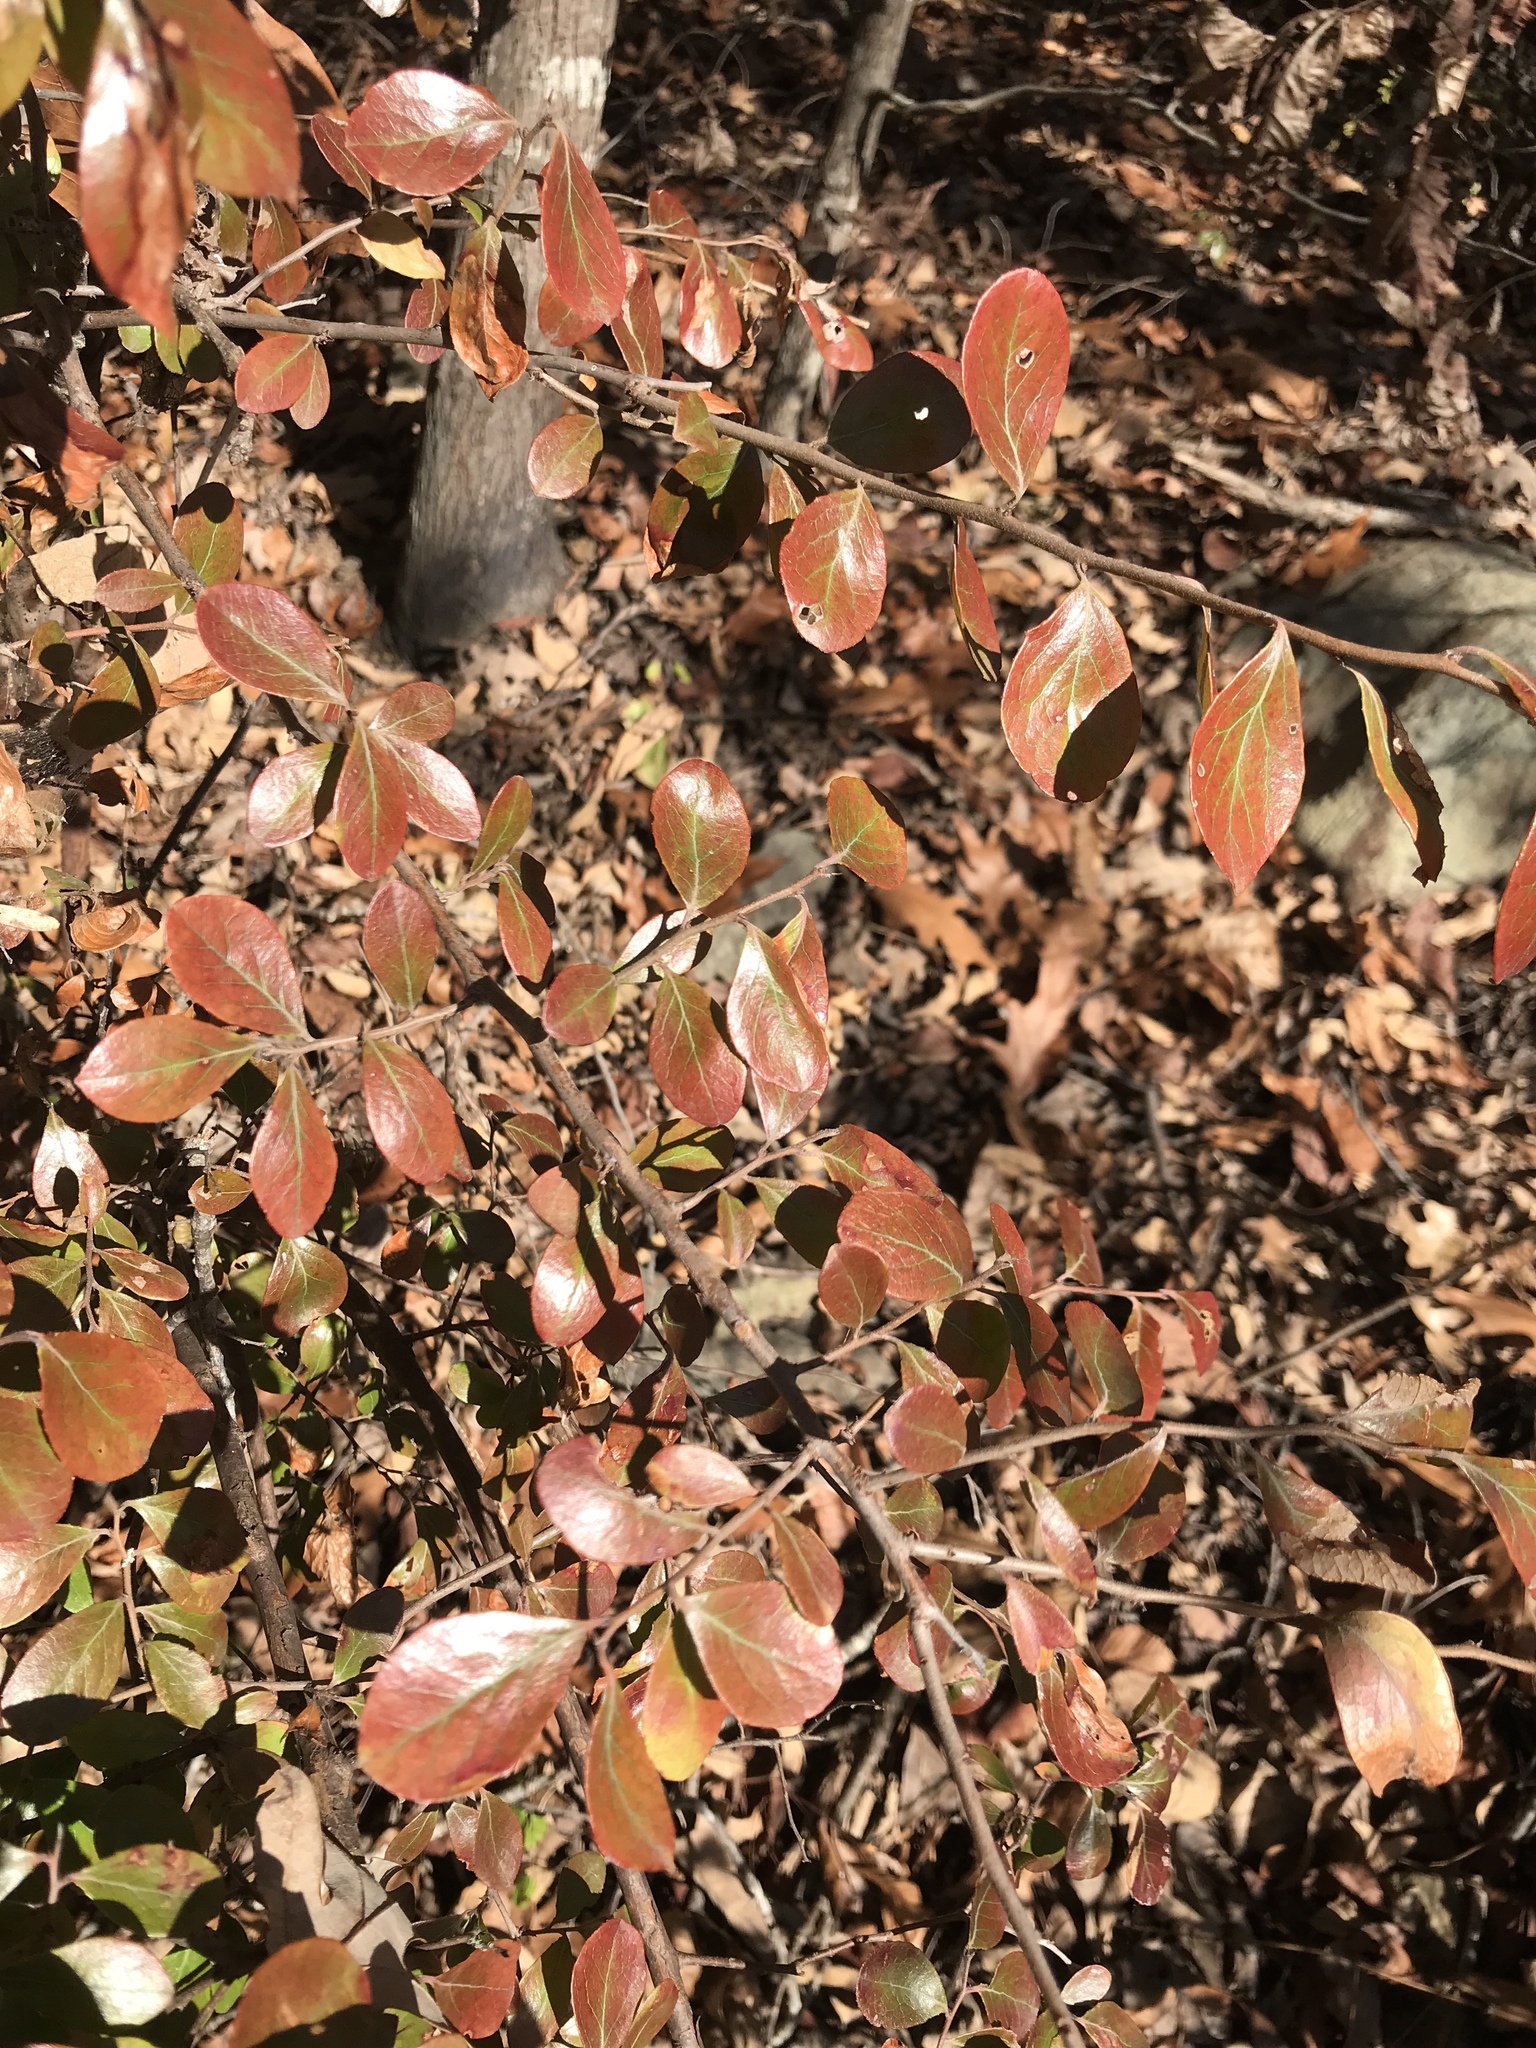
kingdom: Plantae
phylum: Tracheophyta
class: Magnoliopsida
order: Ericales
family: Ericaceae
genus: Vaccinium
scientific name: Vaccinium arboreum
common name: Farkleberry
